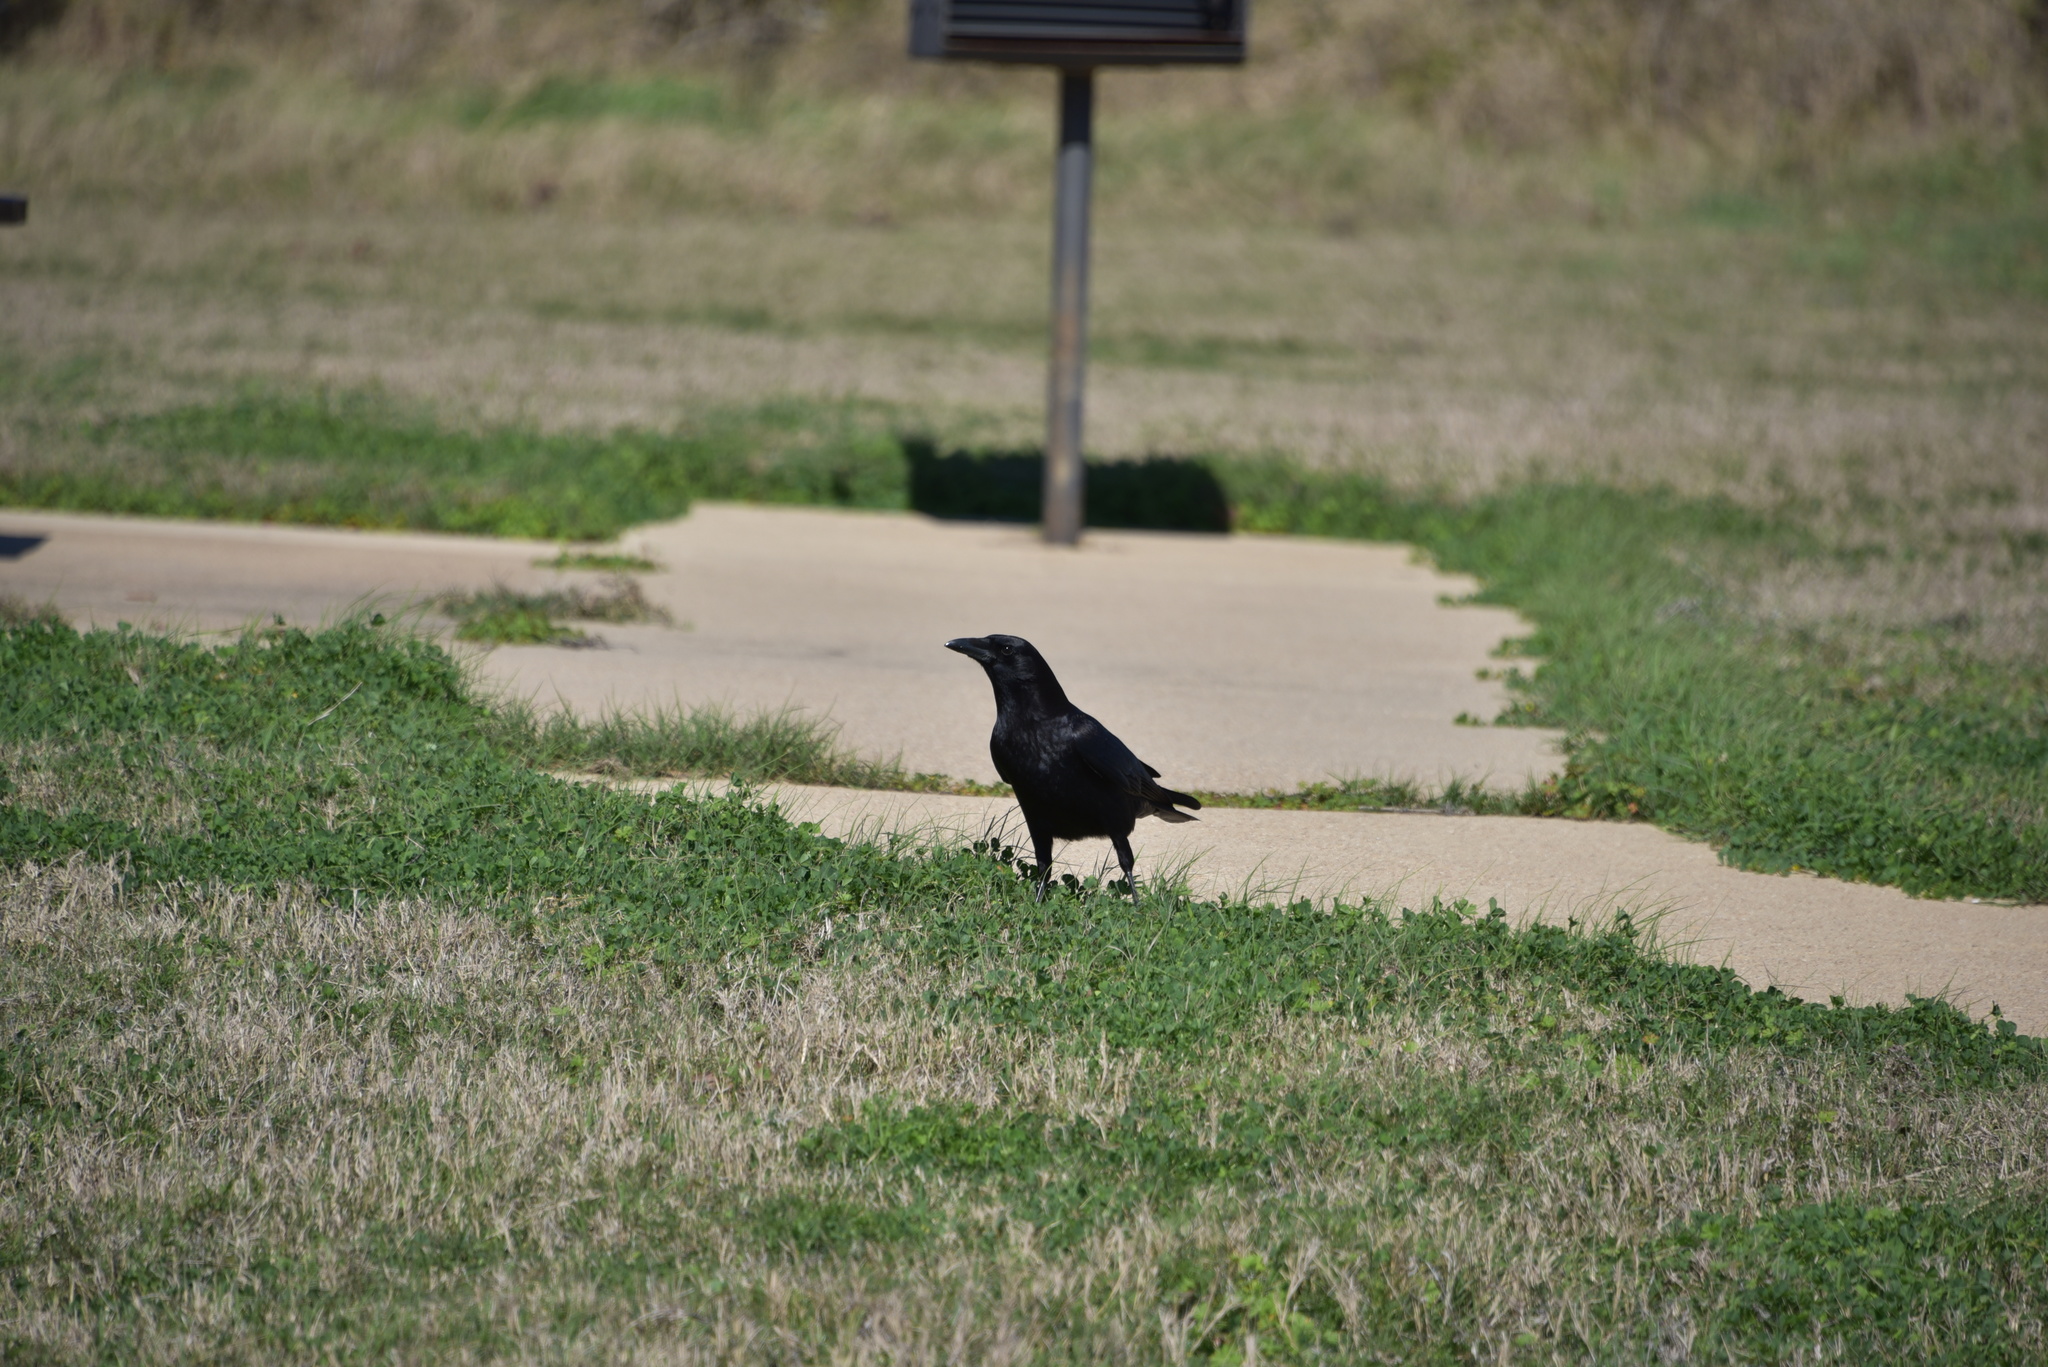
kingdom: Animalia
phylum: Chordata
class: Aves
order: Passeriformes
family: Corvidae
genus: Corvus
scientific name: Corvus brachyrhynchos
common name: American crow
